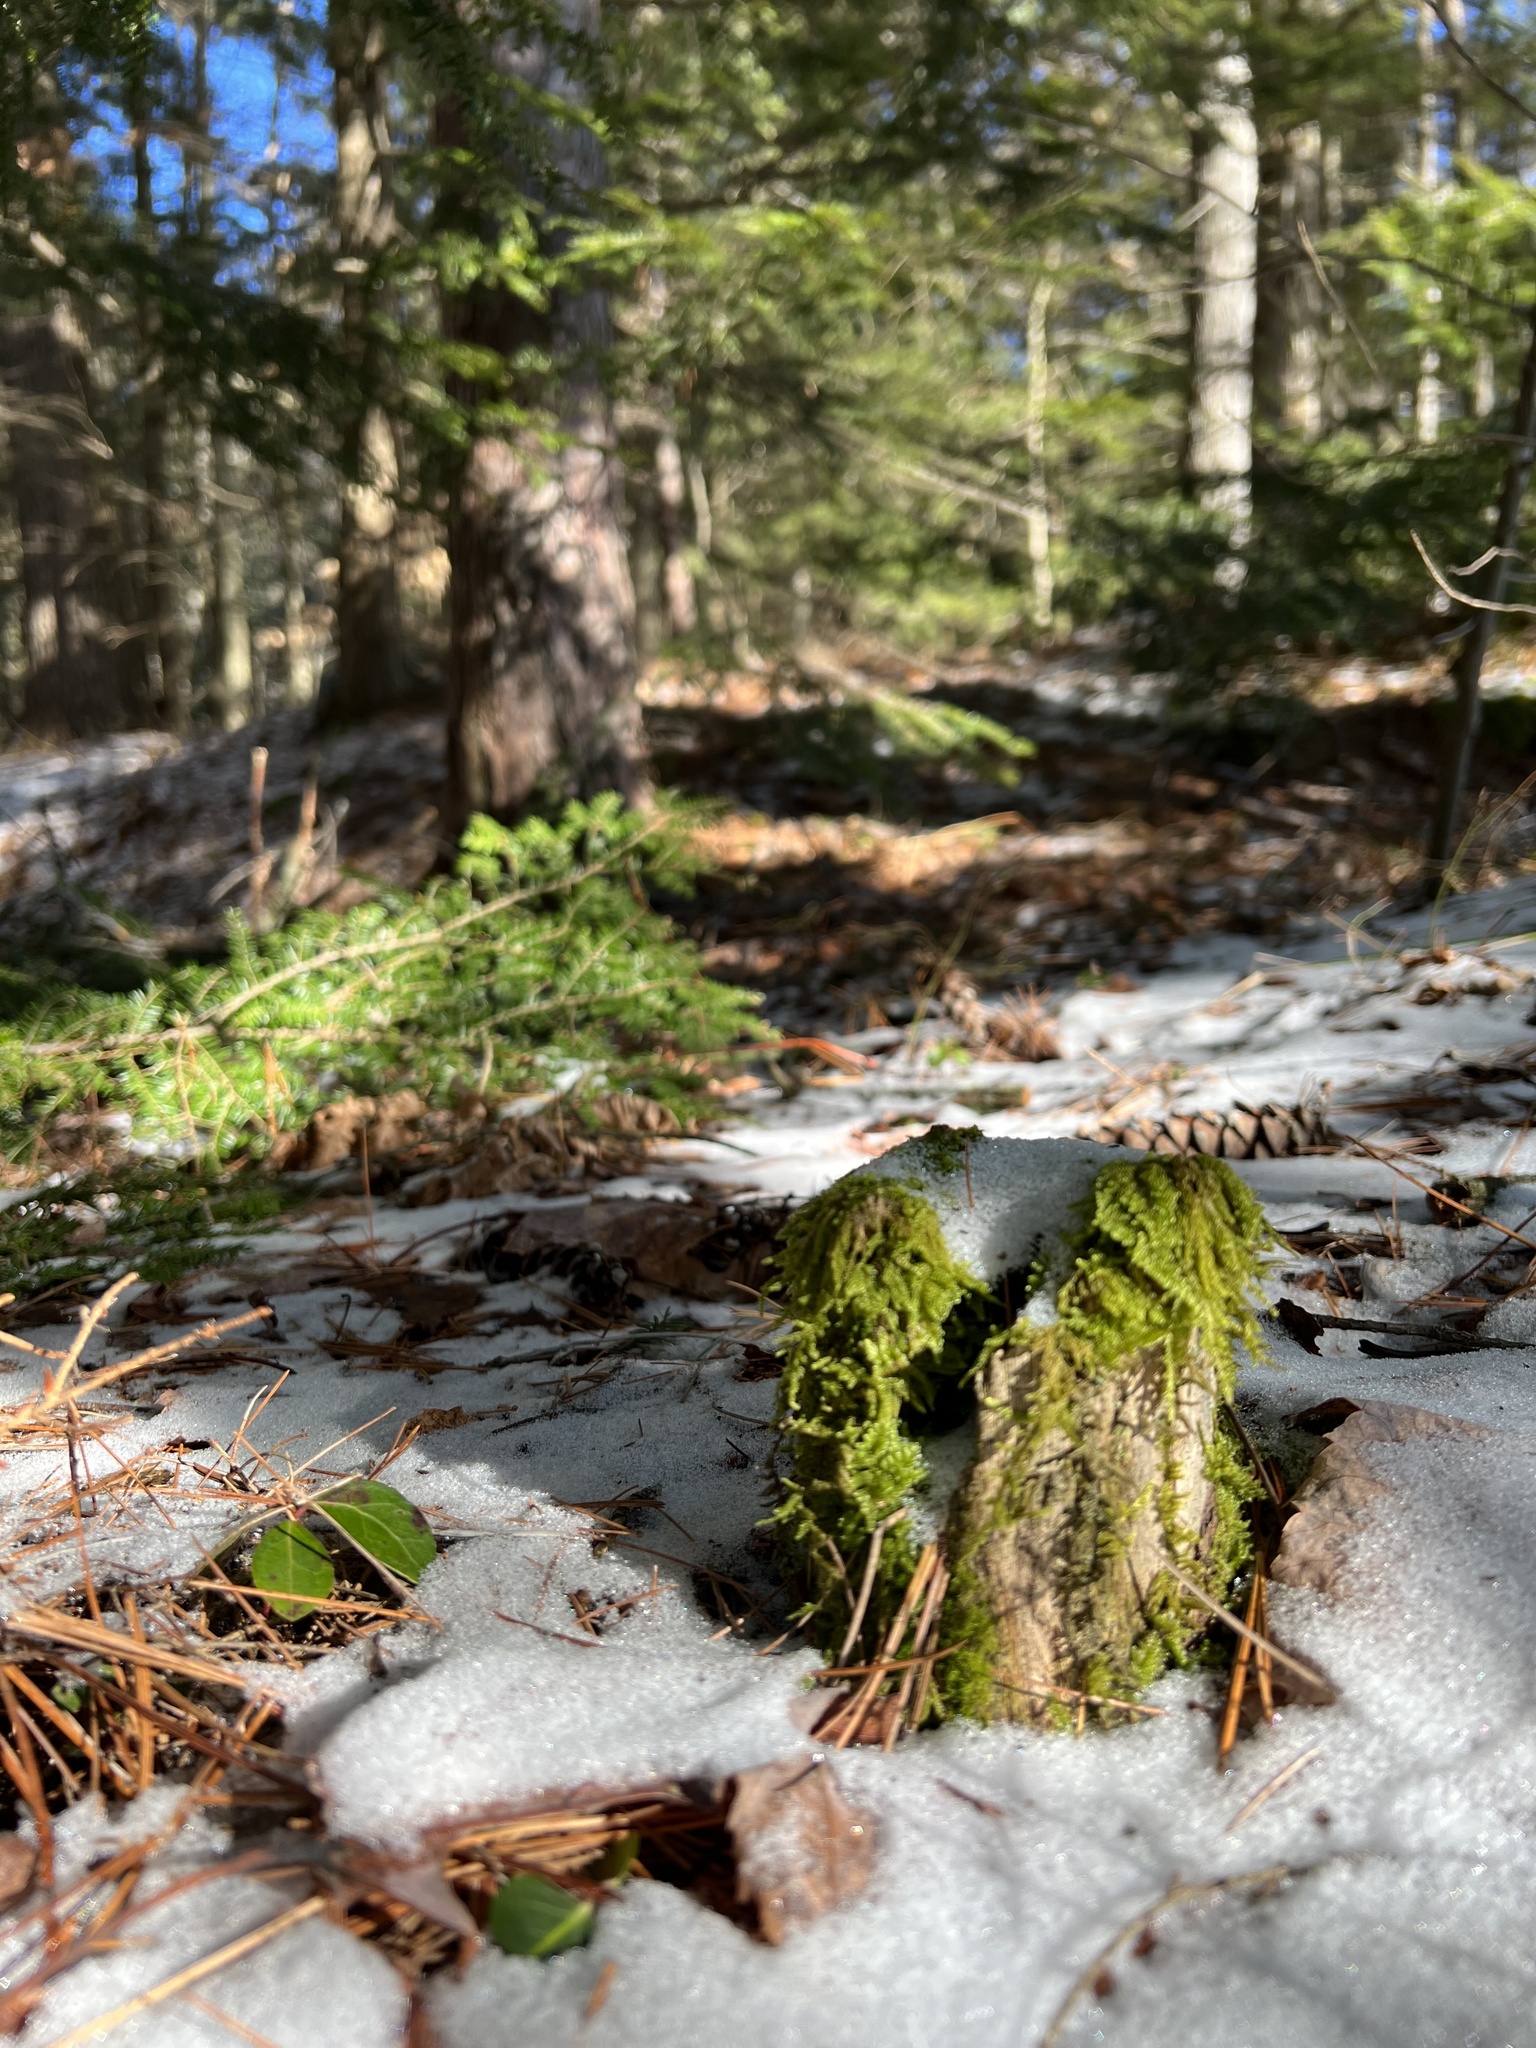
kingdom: Plantae
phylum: Bryophyta
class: Bryopsida
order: Hypnales
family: Callicladiaceae
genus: Callicladium
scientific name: Callicladium imponens
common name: Brocade moss
